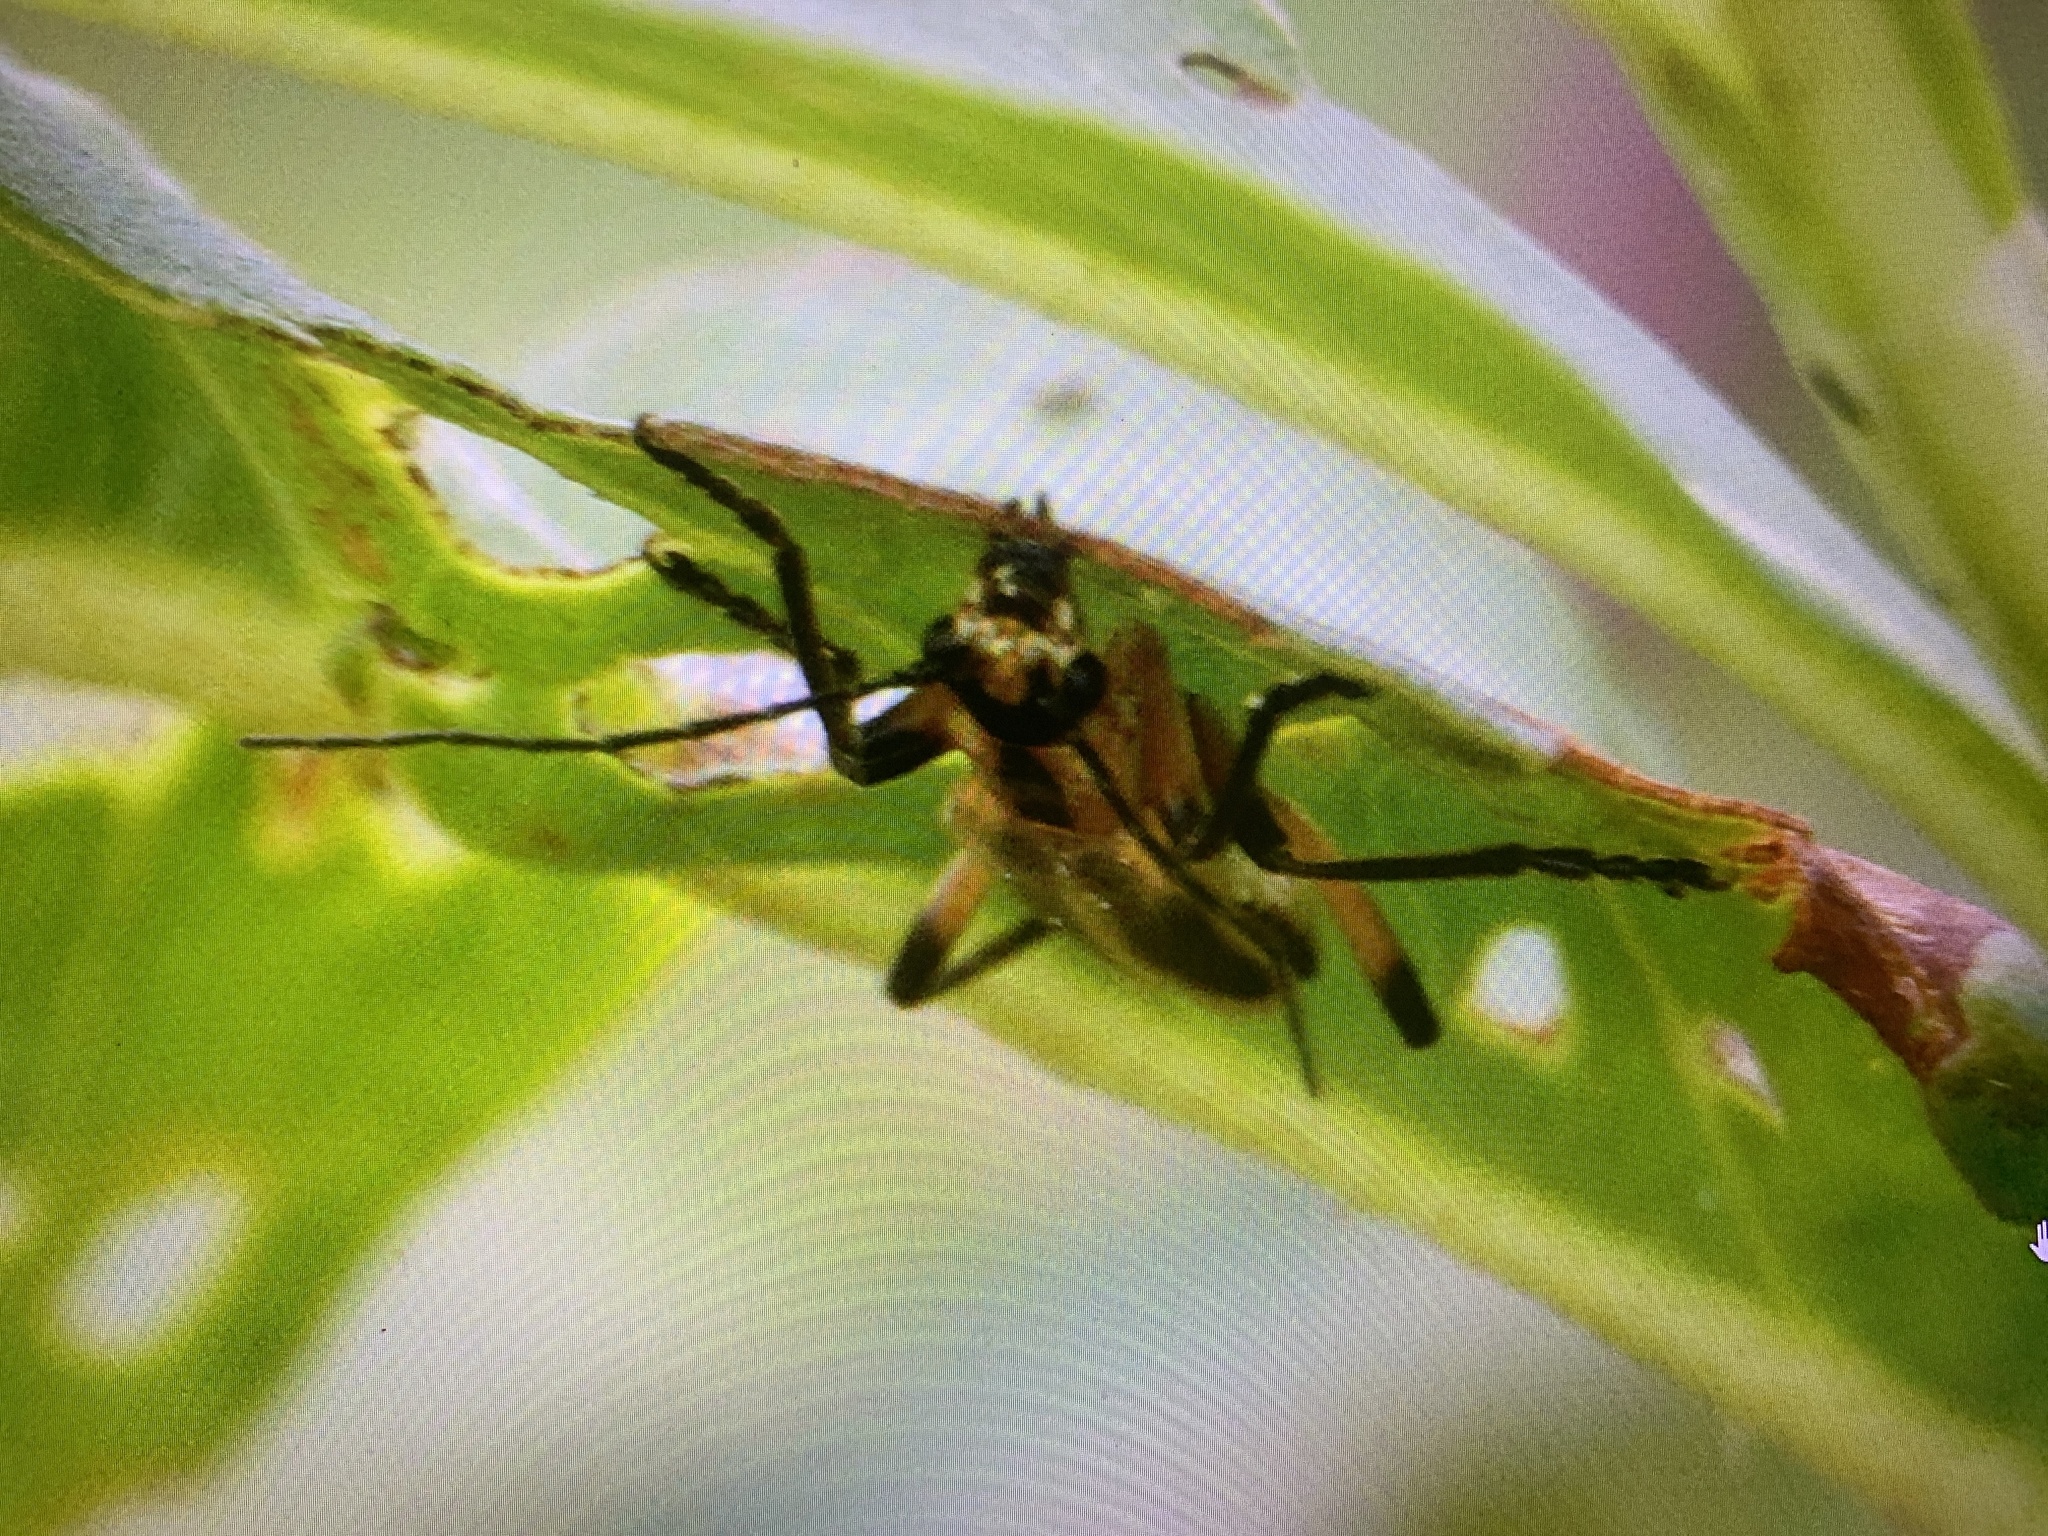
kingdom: Animalia
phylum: Arthropoda
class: Insecta
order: Coleoptera
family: Cantharidae
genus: Chauliognathus
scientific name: Chauliognathus marginatus
